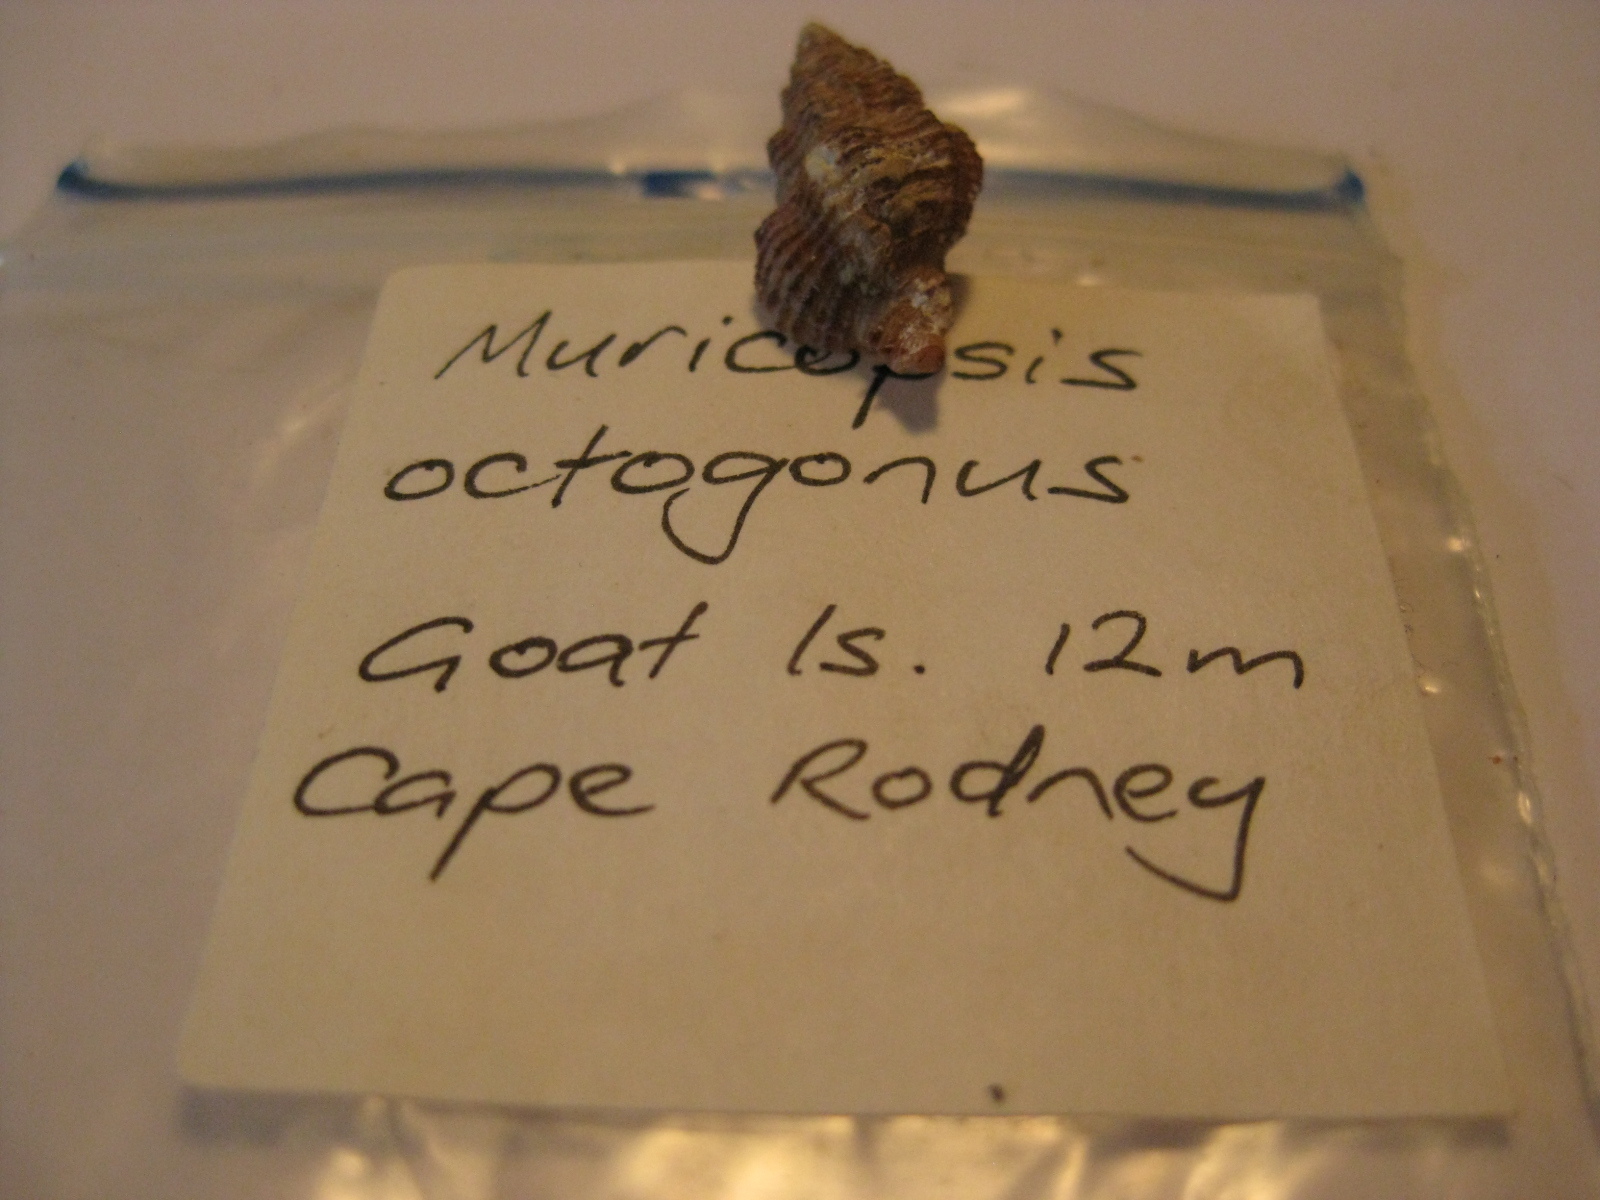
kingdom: Animalia
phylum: Mollusca
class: Gastropoda
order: Neogastropoda
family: Muricidae
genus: Murexsul
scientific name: Murexsul mariae
